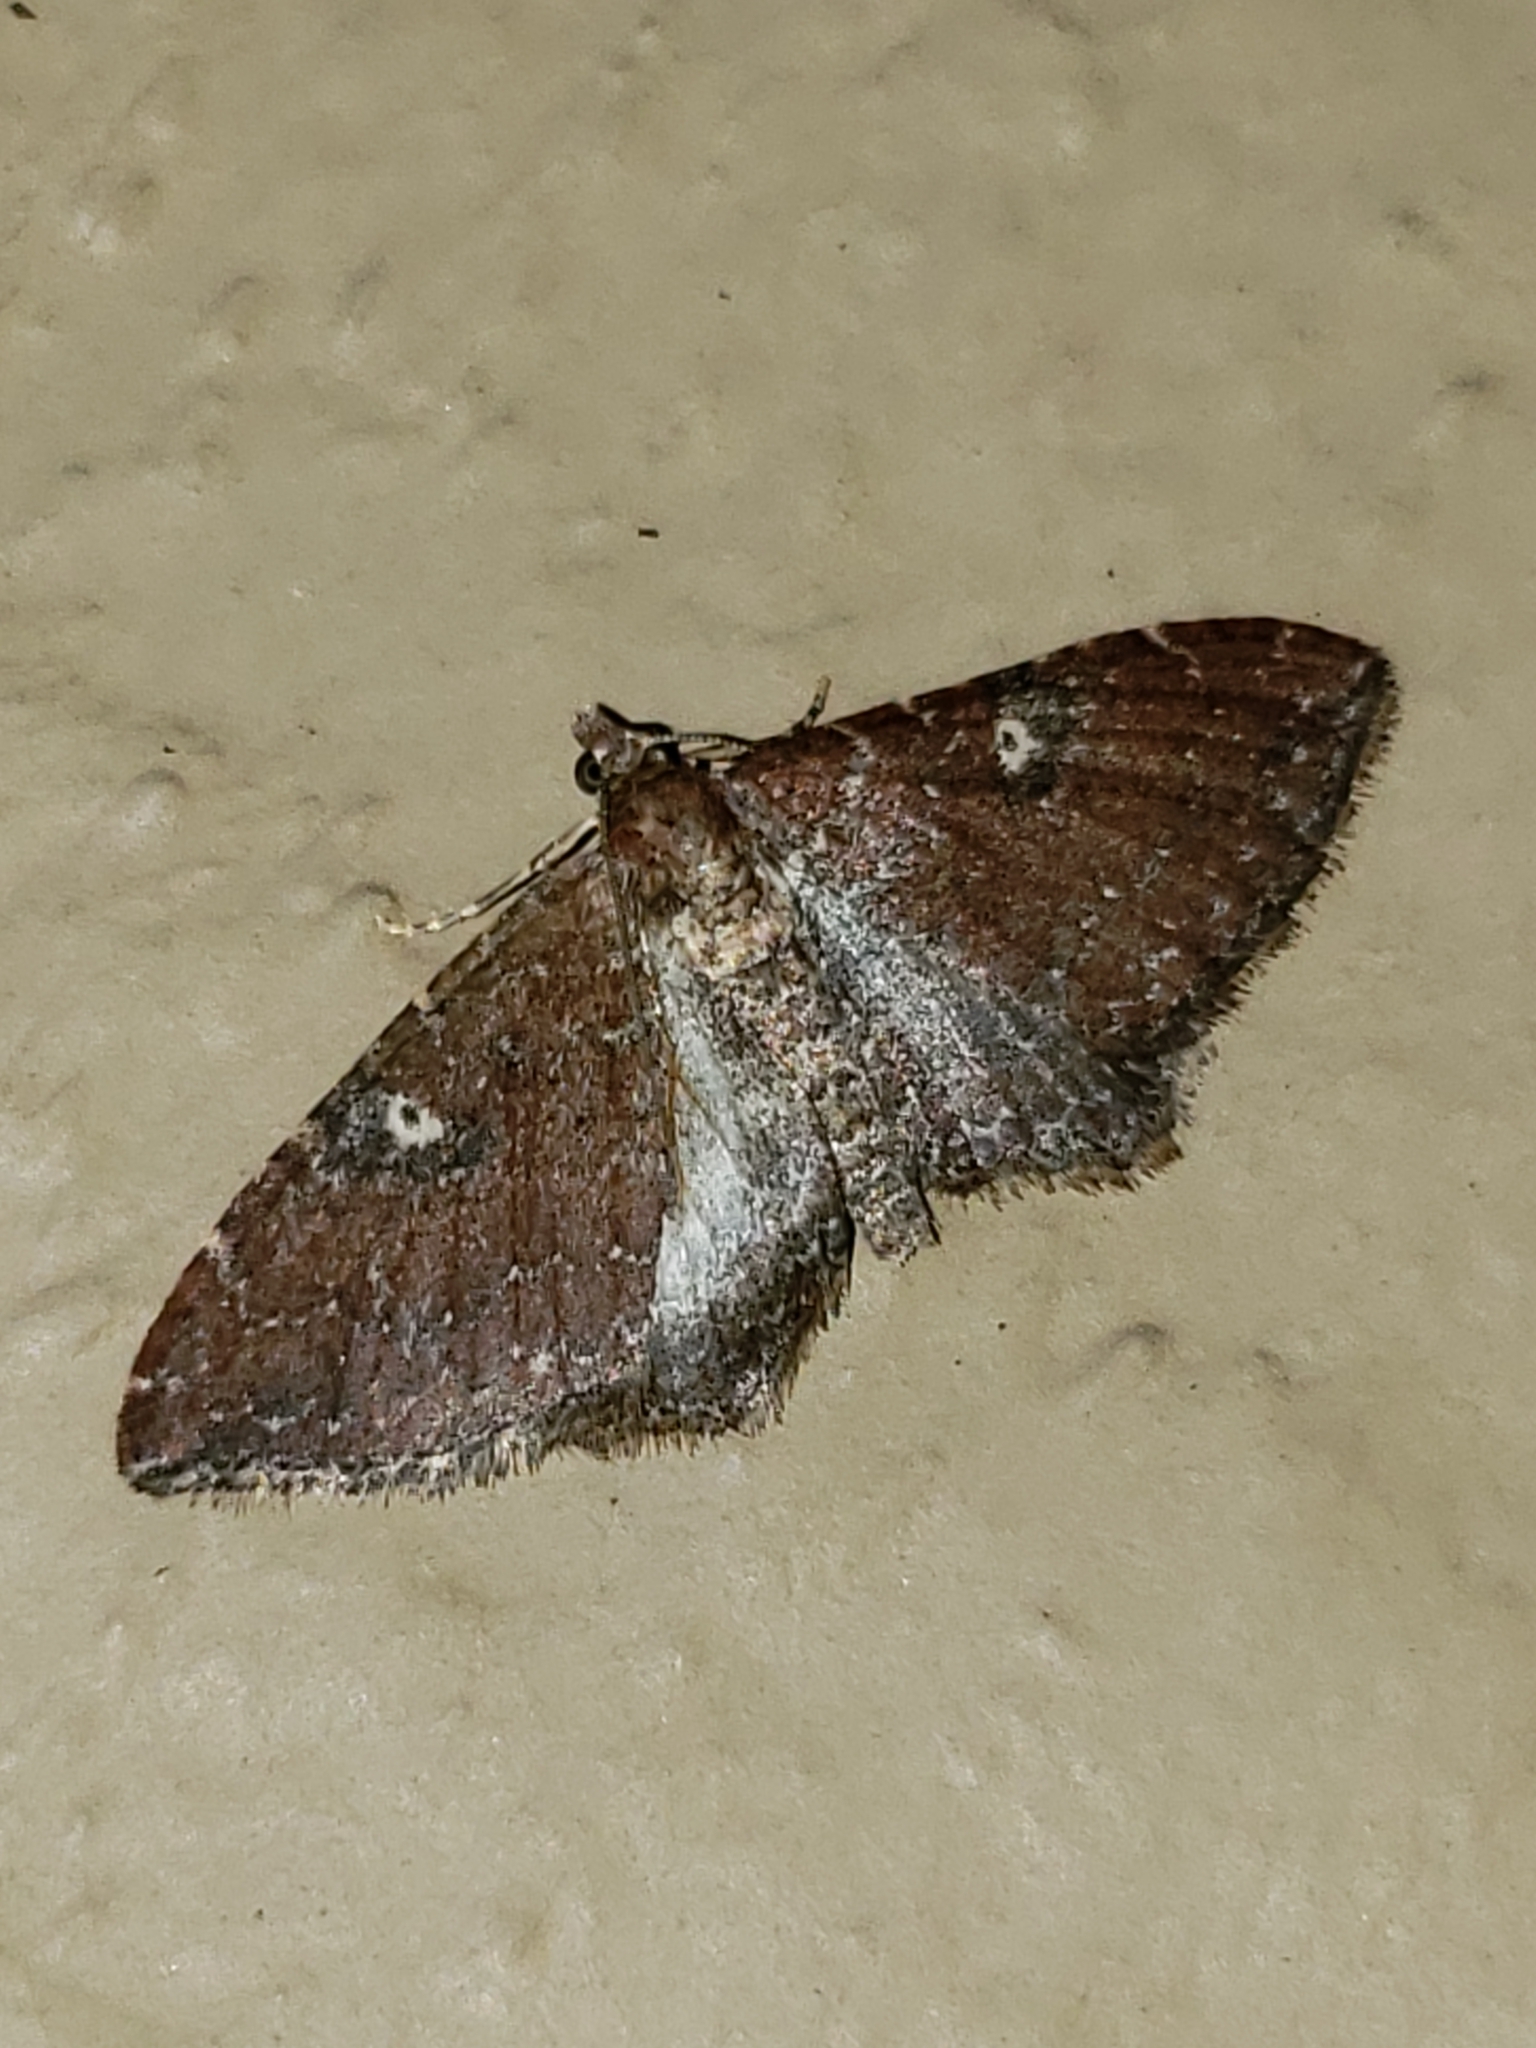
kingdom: Animalia
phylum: Arthropoda
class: Insecta
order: Lepidoptera
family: Geometridae
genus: Orthonama
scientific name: Orthonama obstipata
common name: The gem
